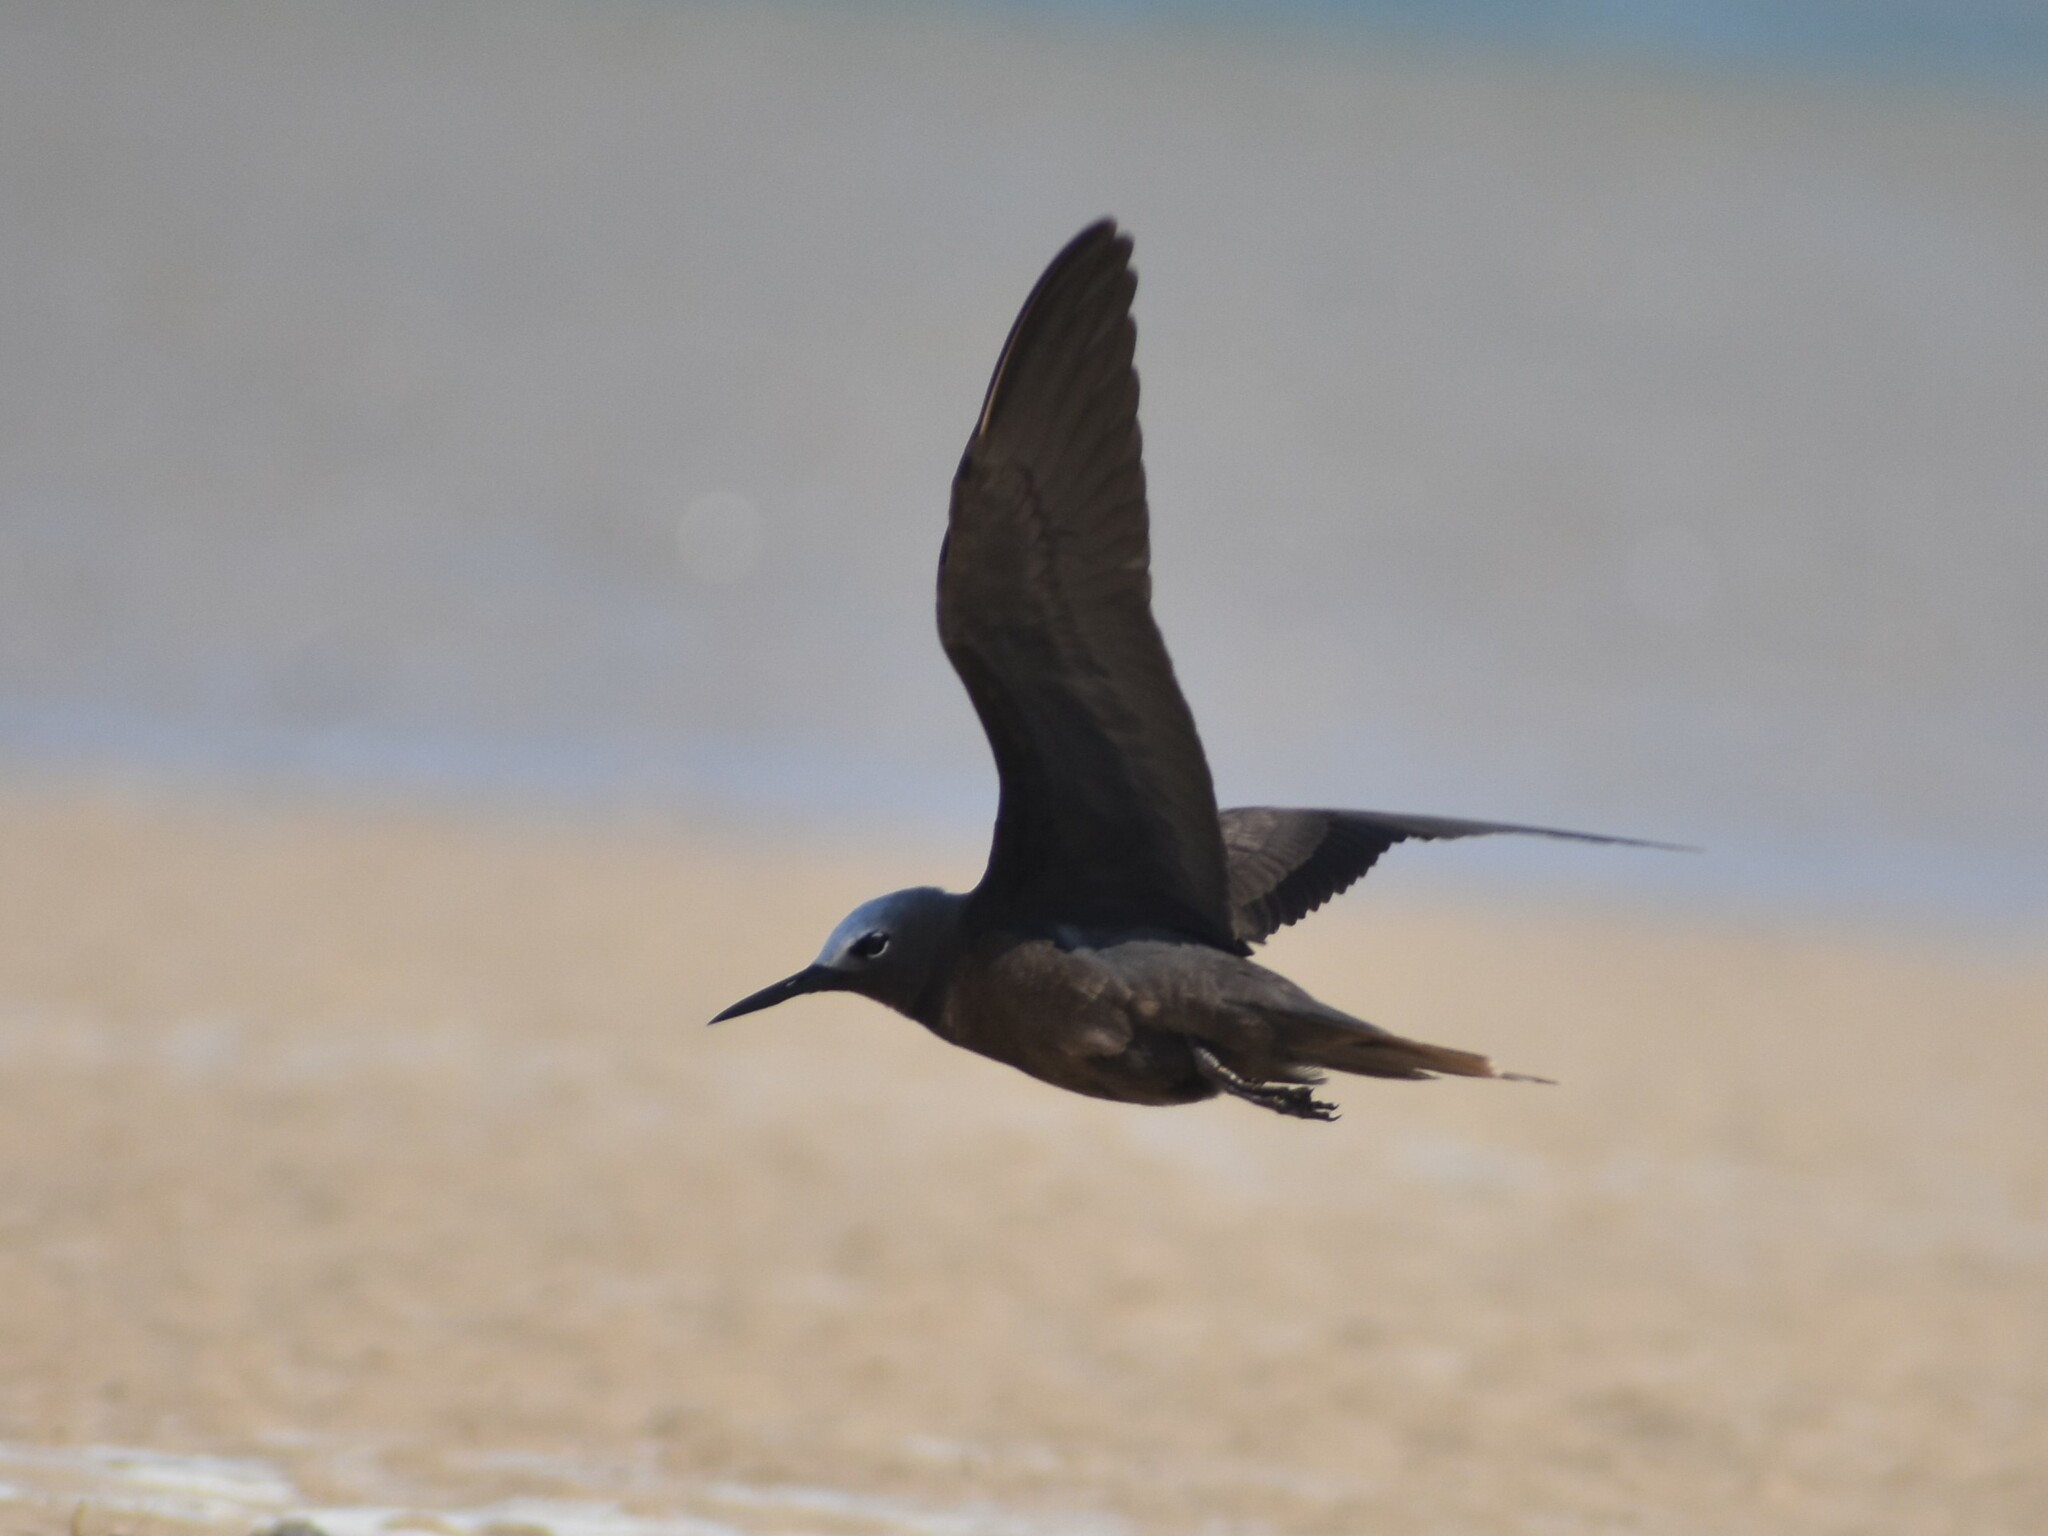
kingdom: Animalia
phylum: Chordata
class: Aves
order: Charadriiformes
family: Laridae
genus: Anous
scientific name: Anous tenuirostris
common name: Lesser noddy
